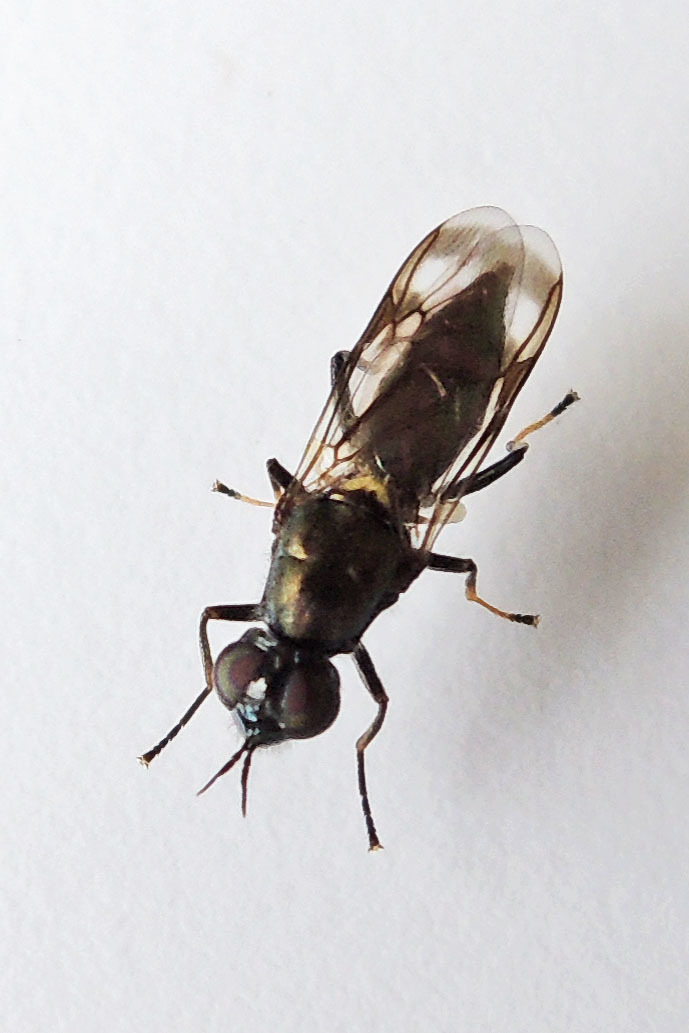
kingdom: Animalia
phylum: Arthropoda
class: Insecta
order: Diptera
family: Stratiomyidae
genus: Myxosargus
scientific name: Myxosargus nigricormis
